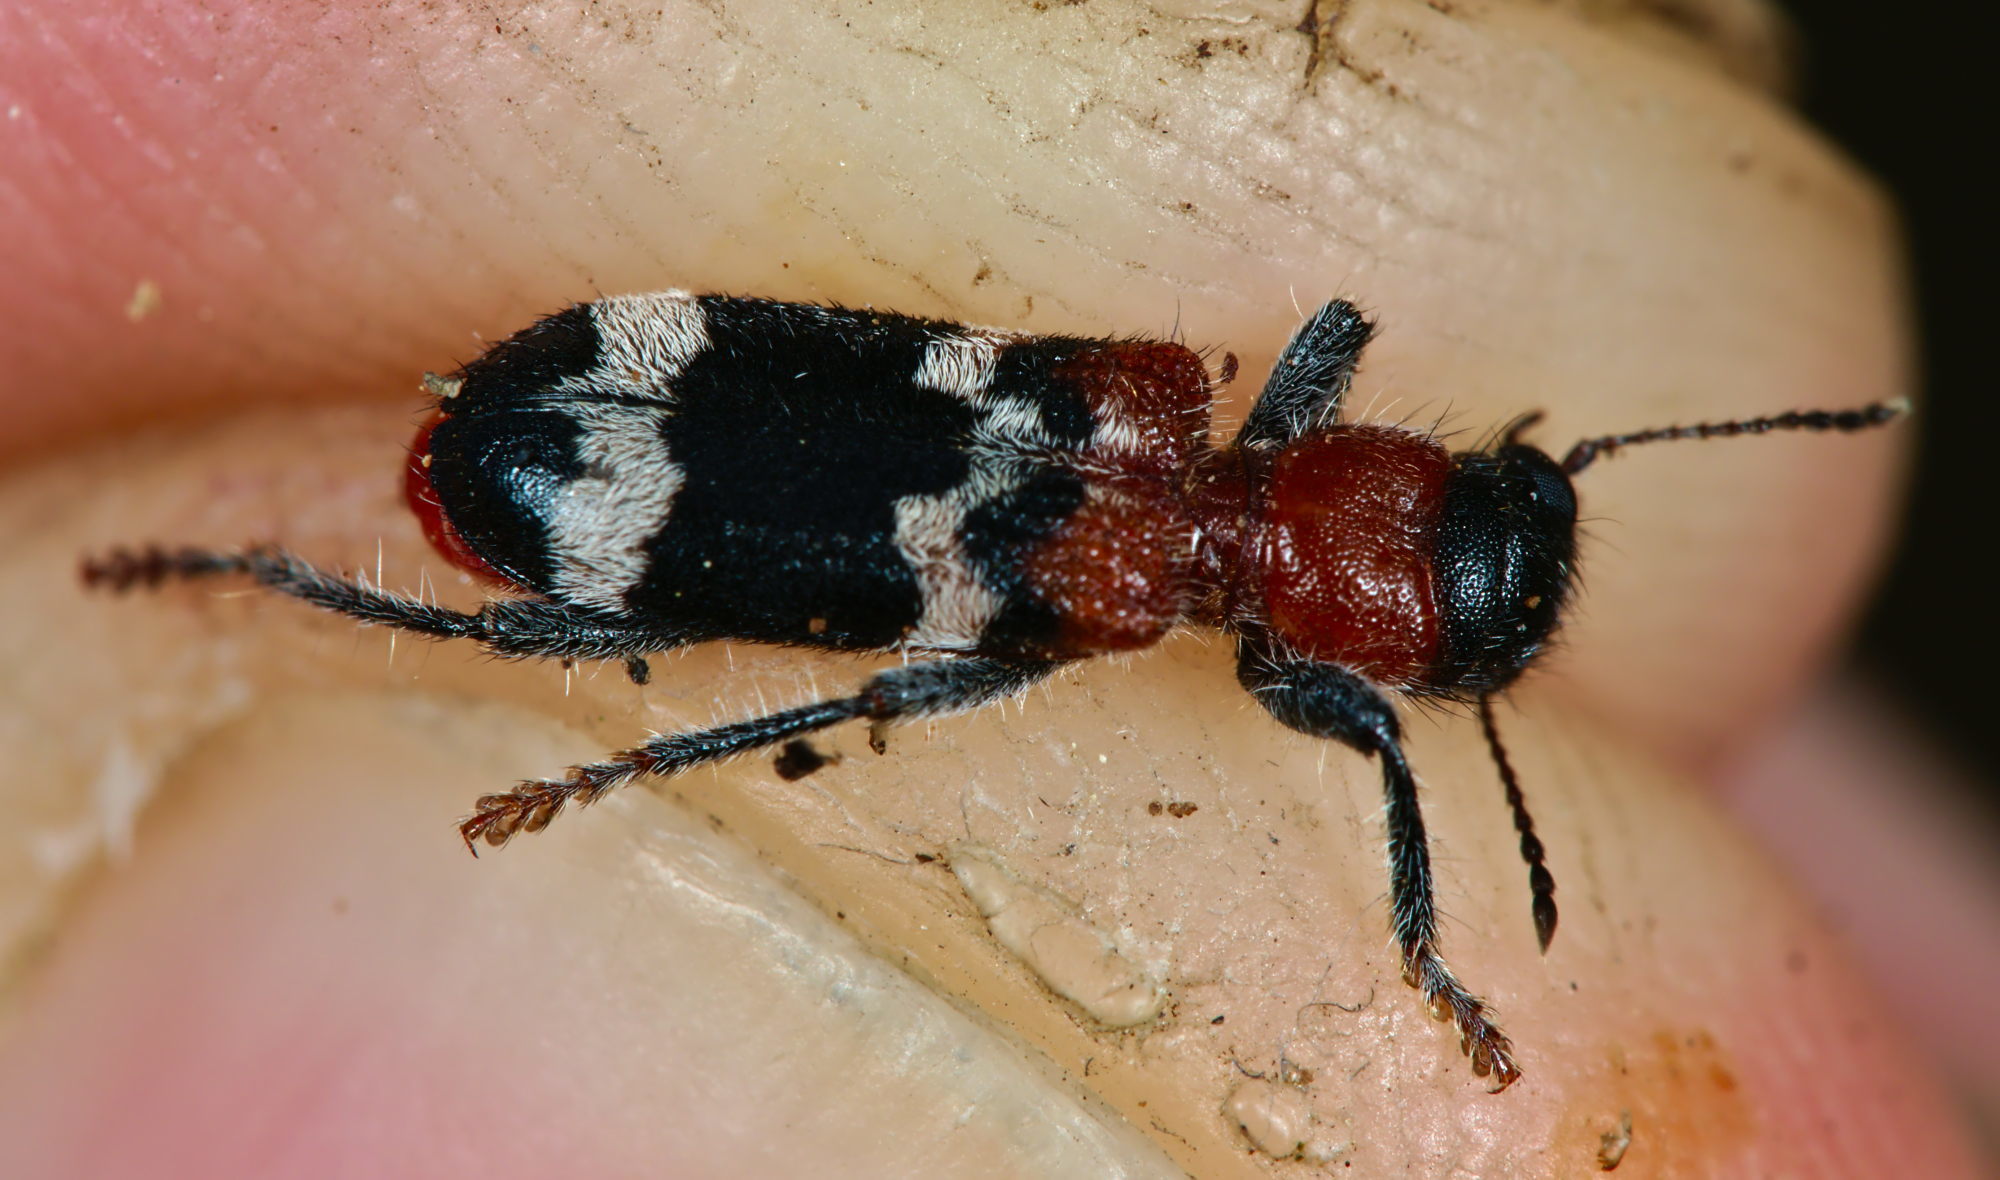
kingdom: Animalia
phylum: Arthropoda
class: Insecta
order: Coleoptera
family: Cleridae
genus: Thanasimus
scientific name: Thanasimus formicarius
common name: Ant beetle
